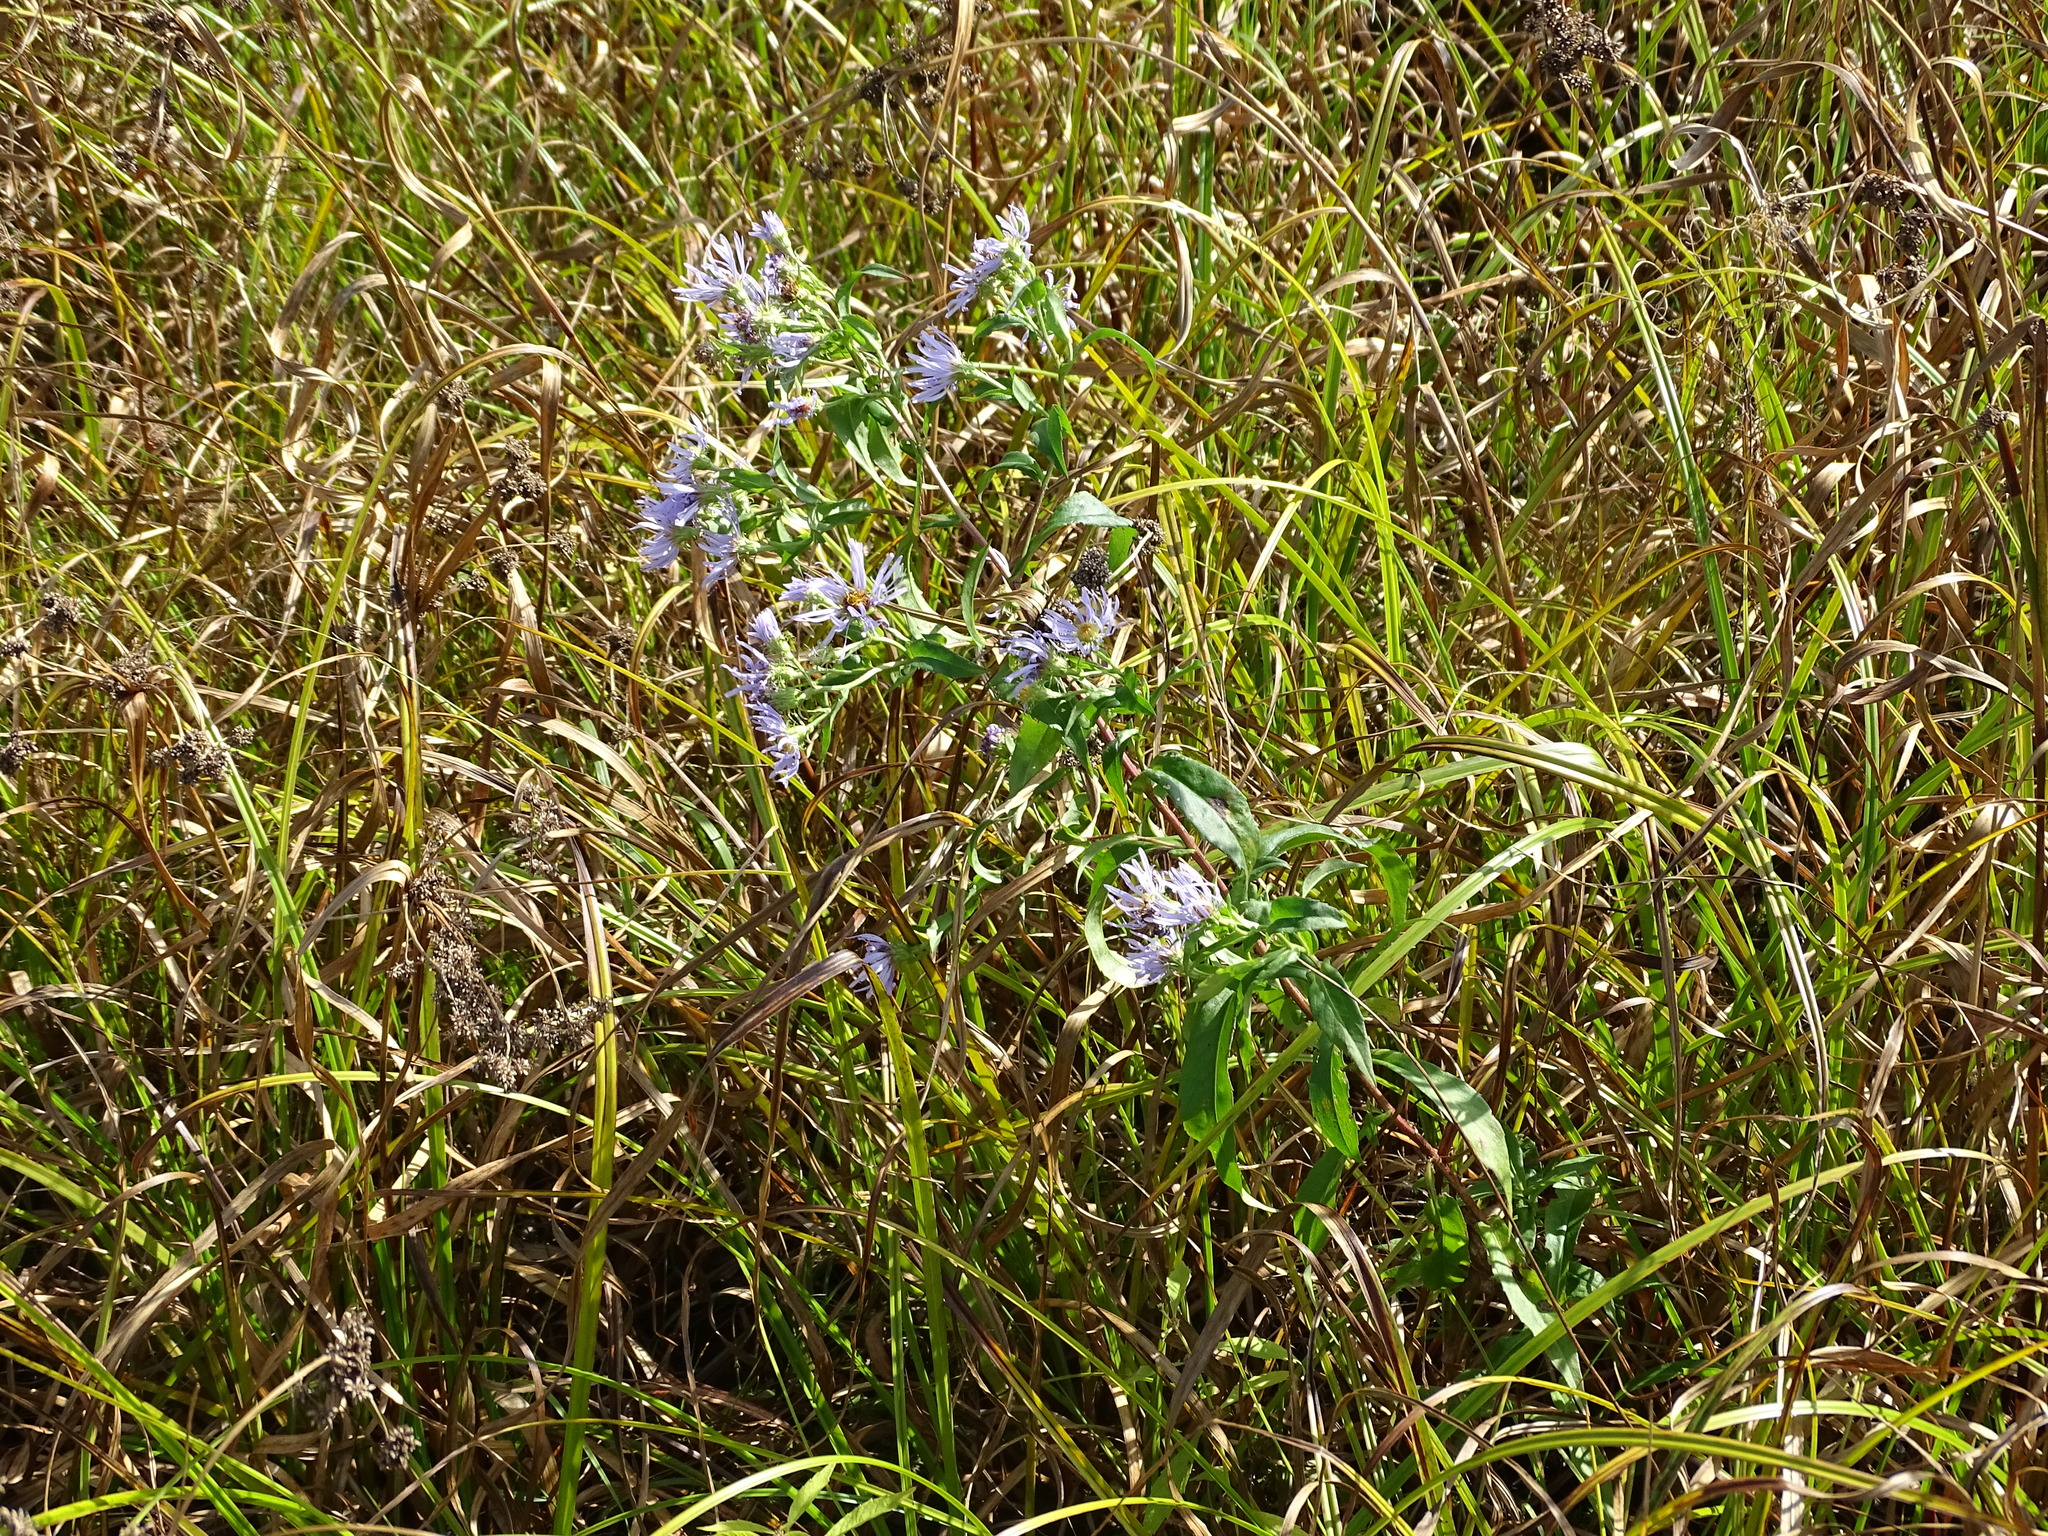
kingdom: Plantae
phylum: Tracheophyta
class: Magnoliopsida
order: Asterales
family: Asteraceae
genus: Symphyotrichum
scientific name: Symphyotrichum puniceum
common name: Bog aster
